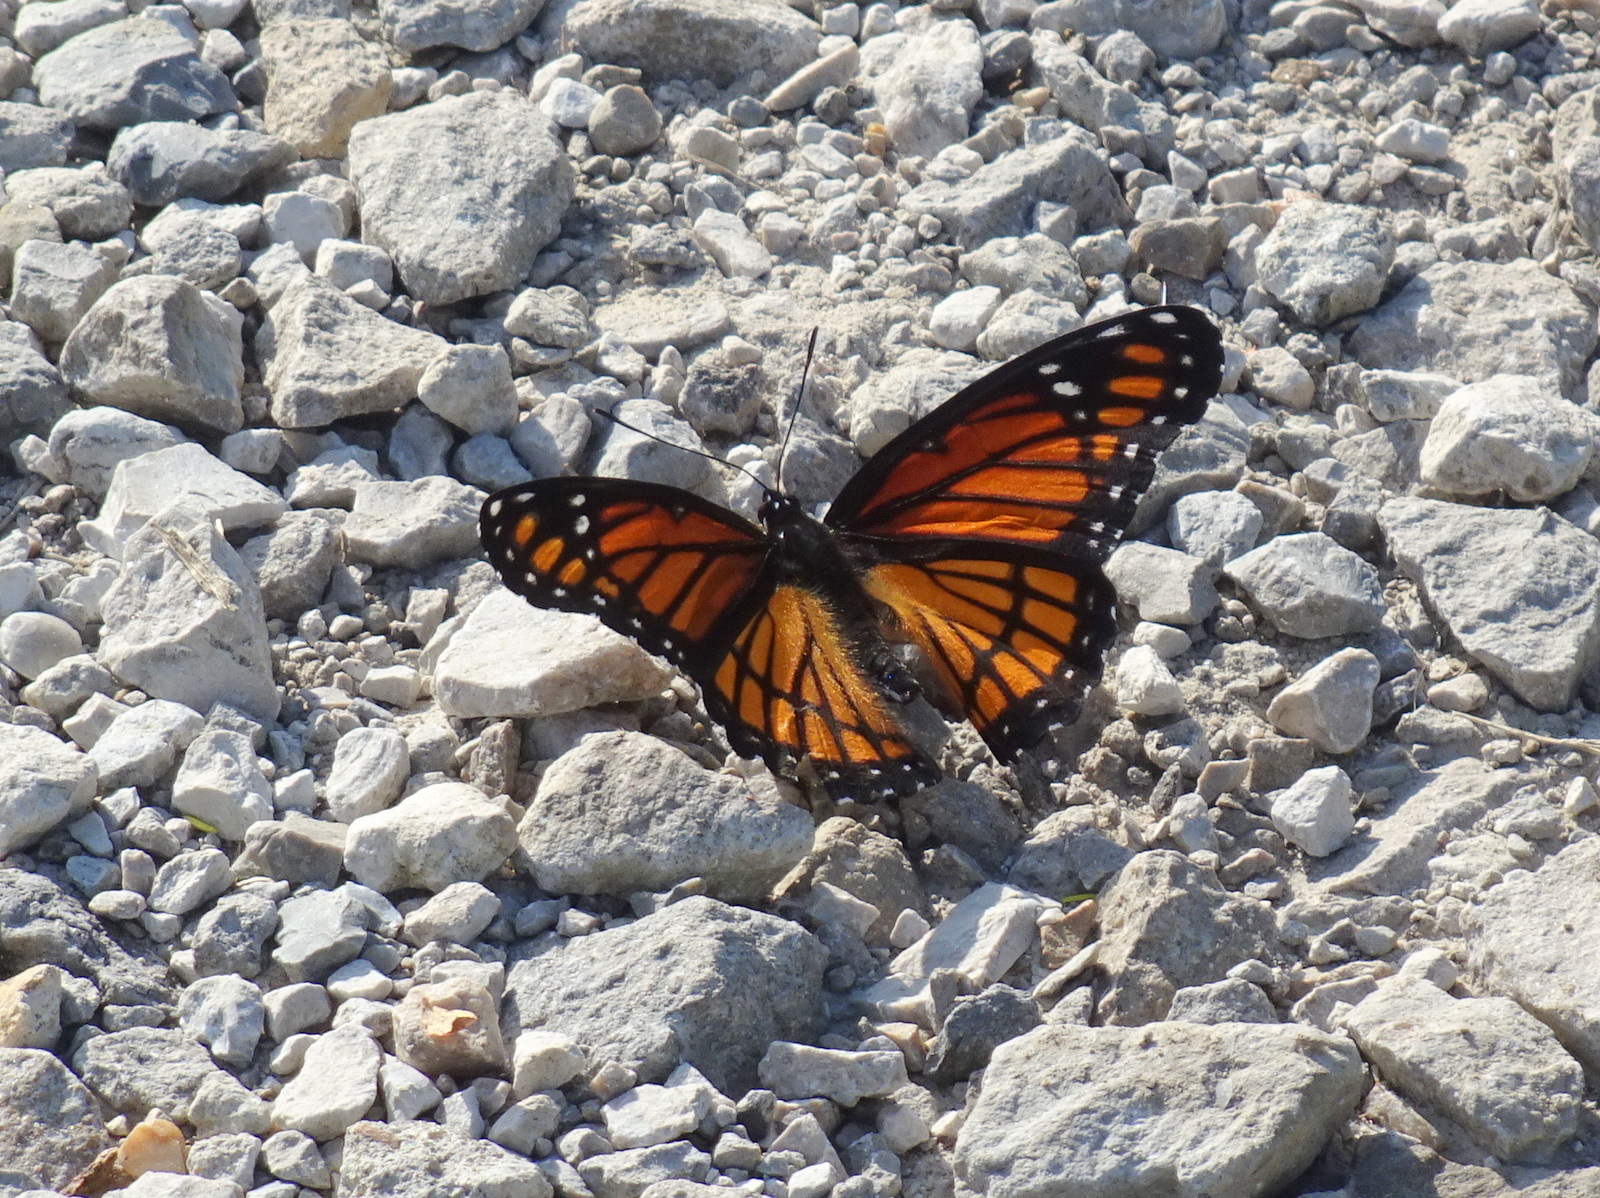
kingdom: Animalia
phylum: Arthropoda
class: Insecta
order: Lepidoptera
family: Nymphalidae
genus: Limenitis
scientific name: Limenitis archippus
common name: Viceroy
